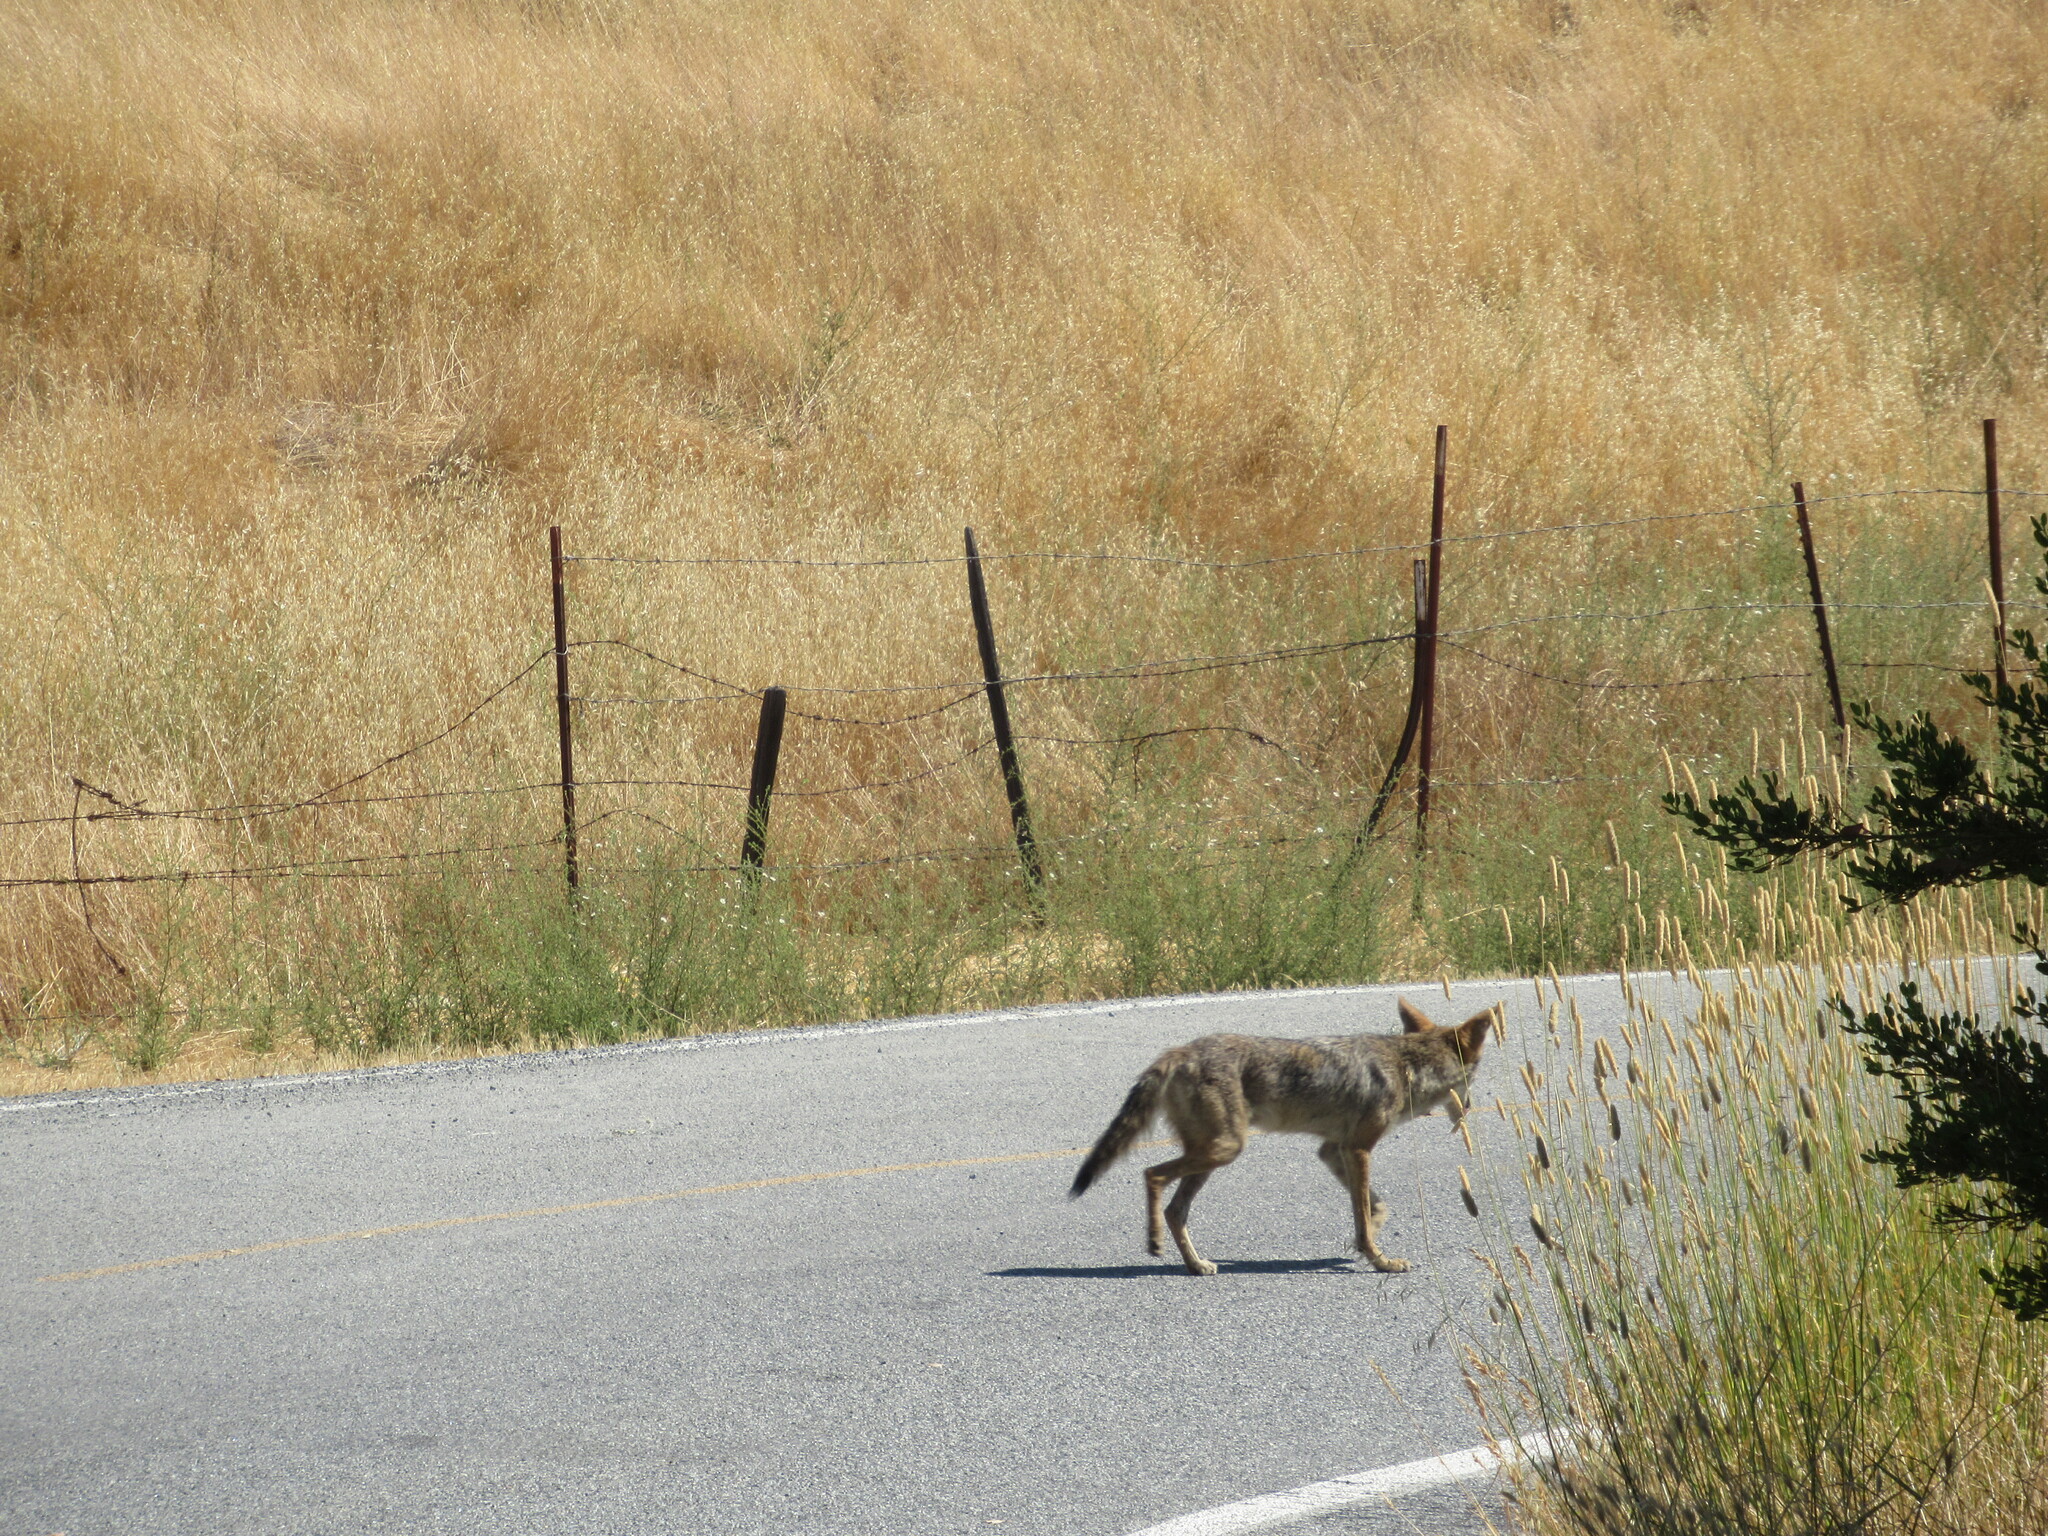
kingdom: Animalia
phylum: Chordata
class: Mammalia
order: Carnivora
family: Canidae
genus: Canis
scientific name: Canis latrans
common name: Coyote
